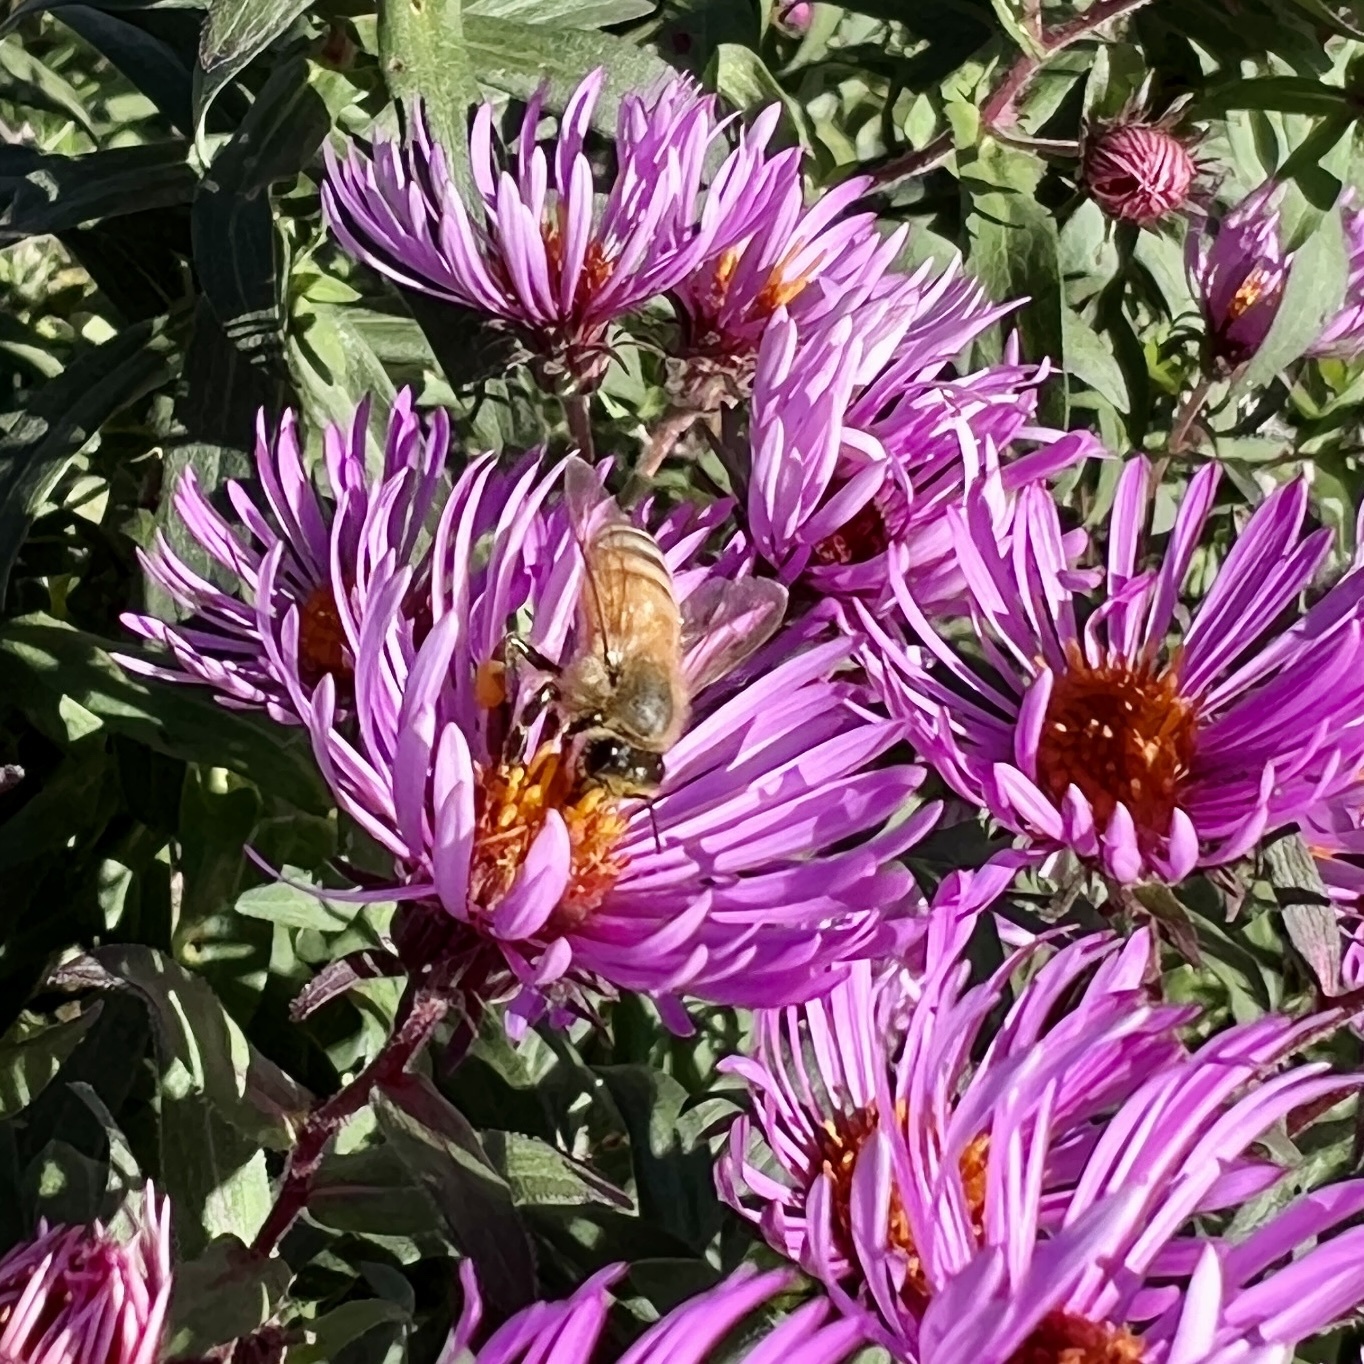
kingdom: Animalia
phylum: Arthropoda
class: Insecta
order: Hymenoptera
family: Apidae
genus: Apis
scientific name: Apis mellifera
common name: Honey bee
